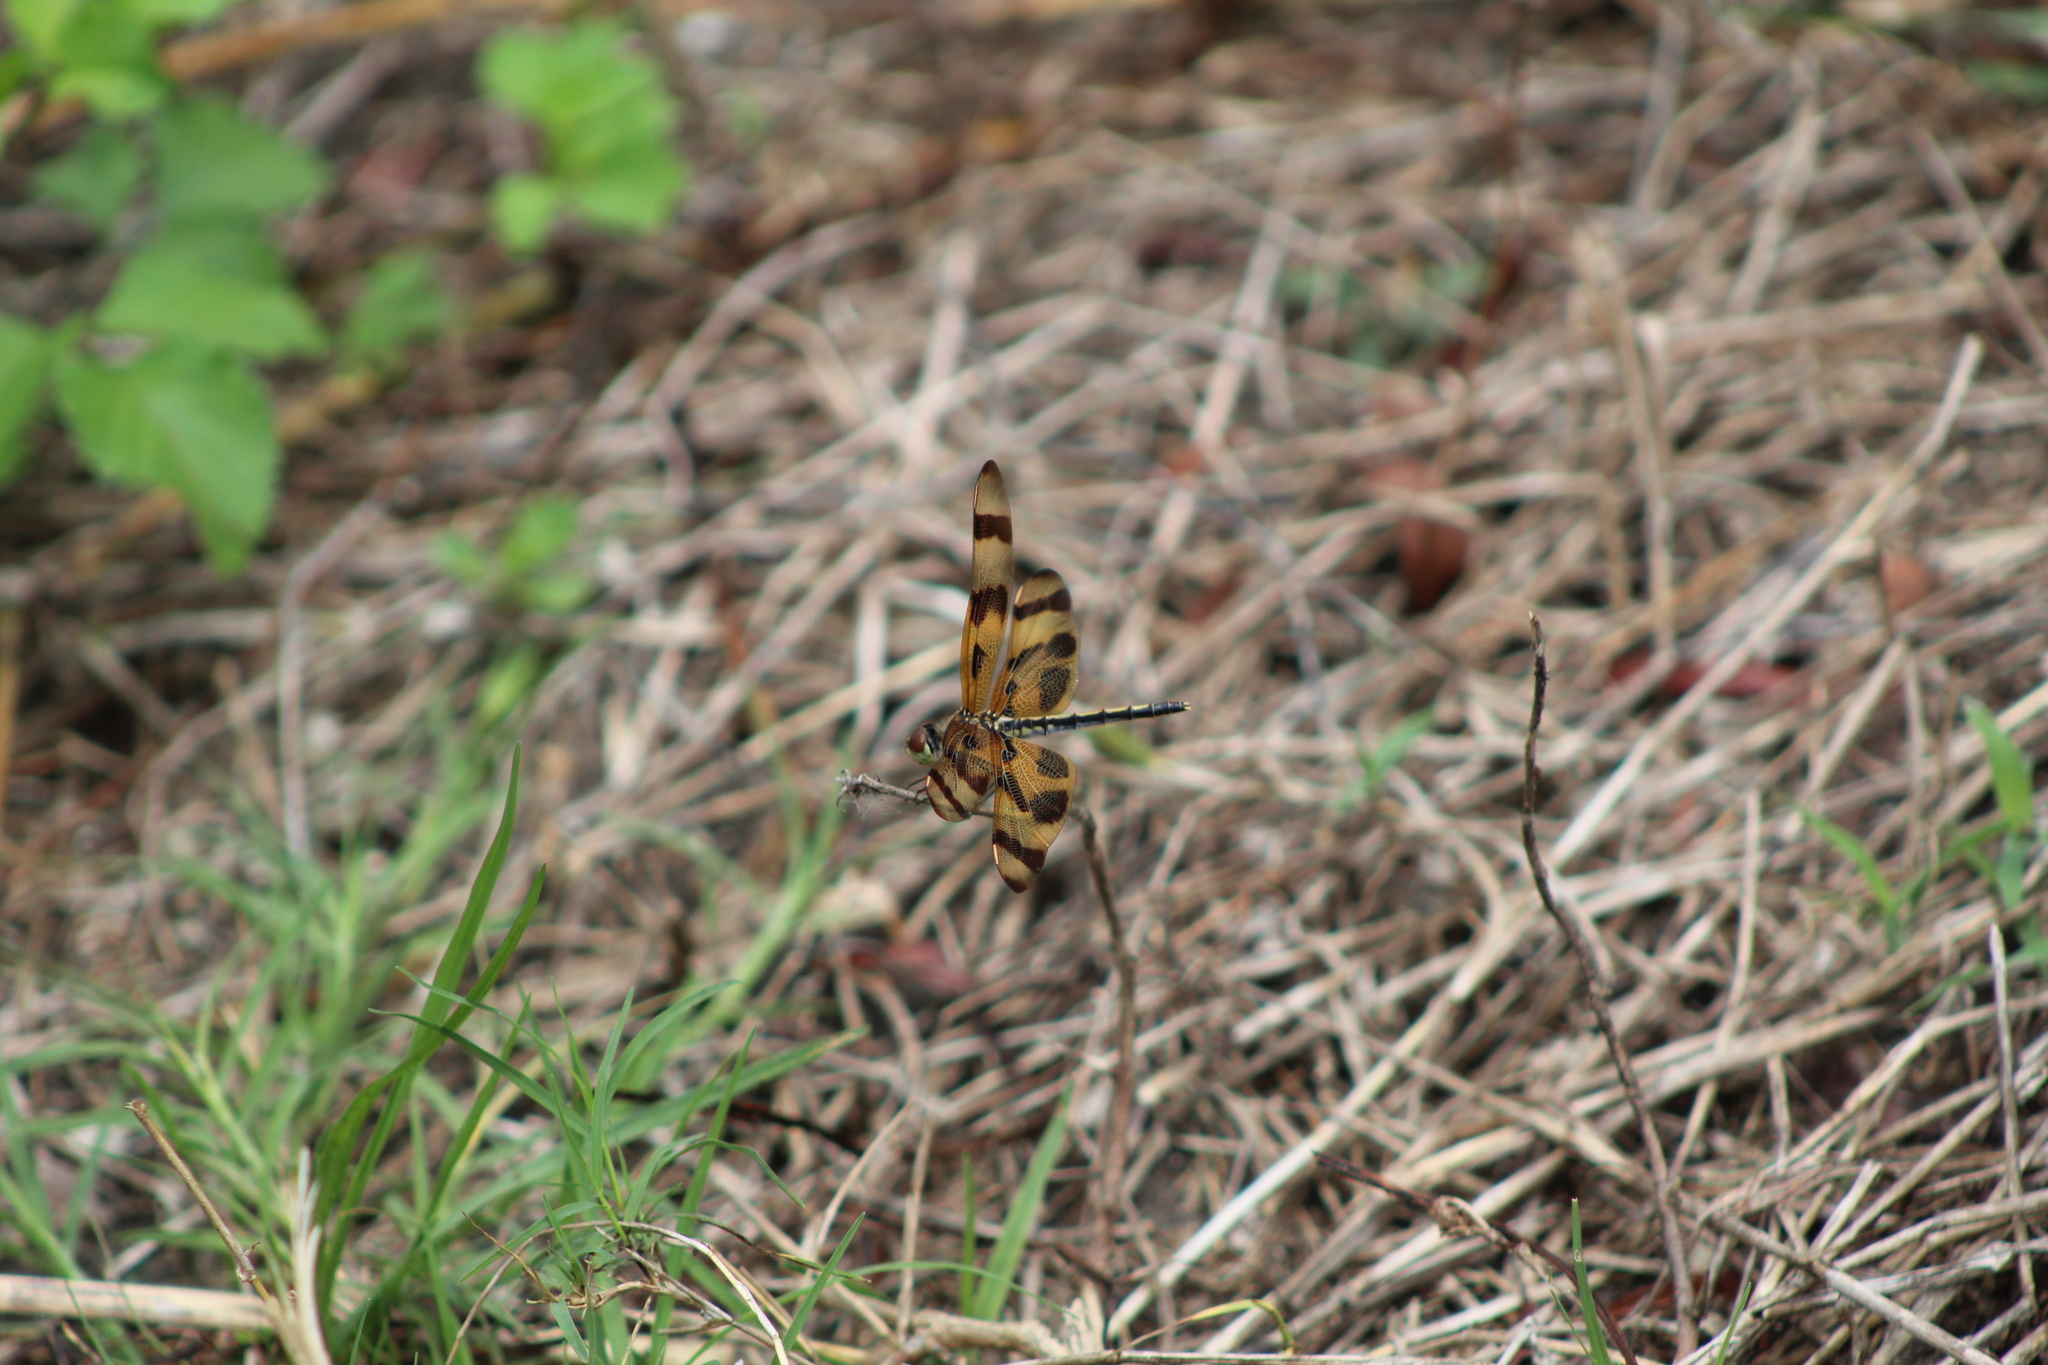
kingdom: Animalia
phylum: Arthropoda
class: Insecta
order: Odonata
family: Libellulidae
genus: Celithemis
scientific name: Celithemis eponina
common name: Halloween pennant
